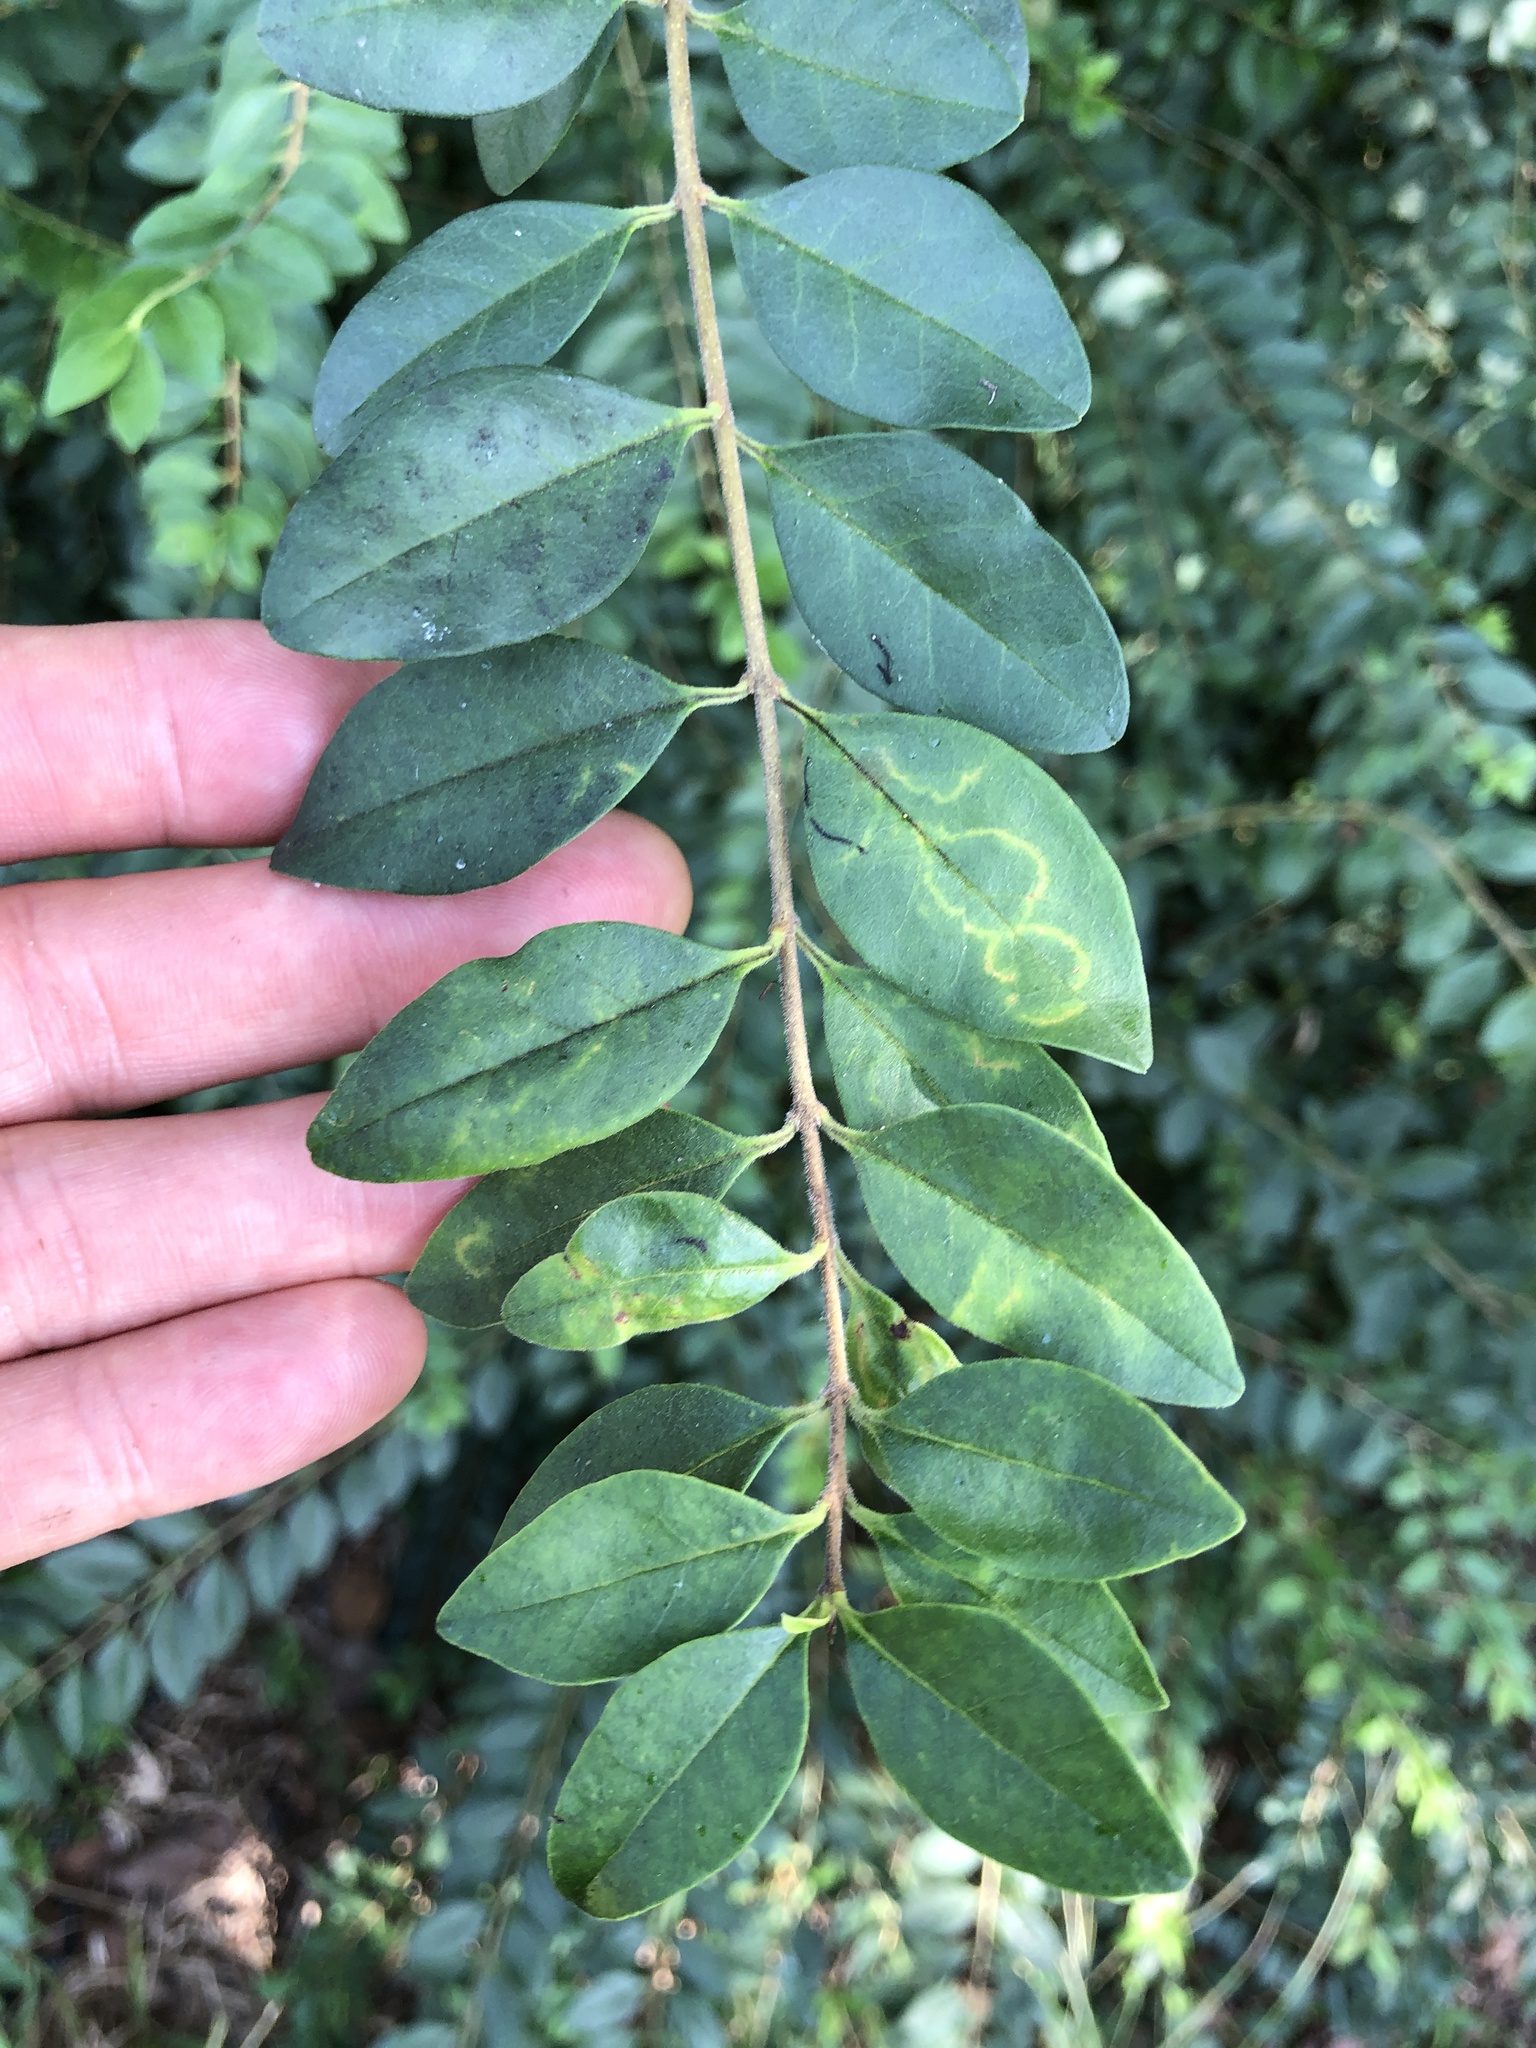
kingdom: Plantae
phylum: Tracheophyta
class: Magnoliopsida
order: Lamiales
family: Oleaceae
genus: Ligustrum
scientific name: Ligustrum sinense
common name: Chinese privet
